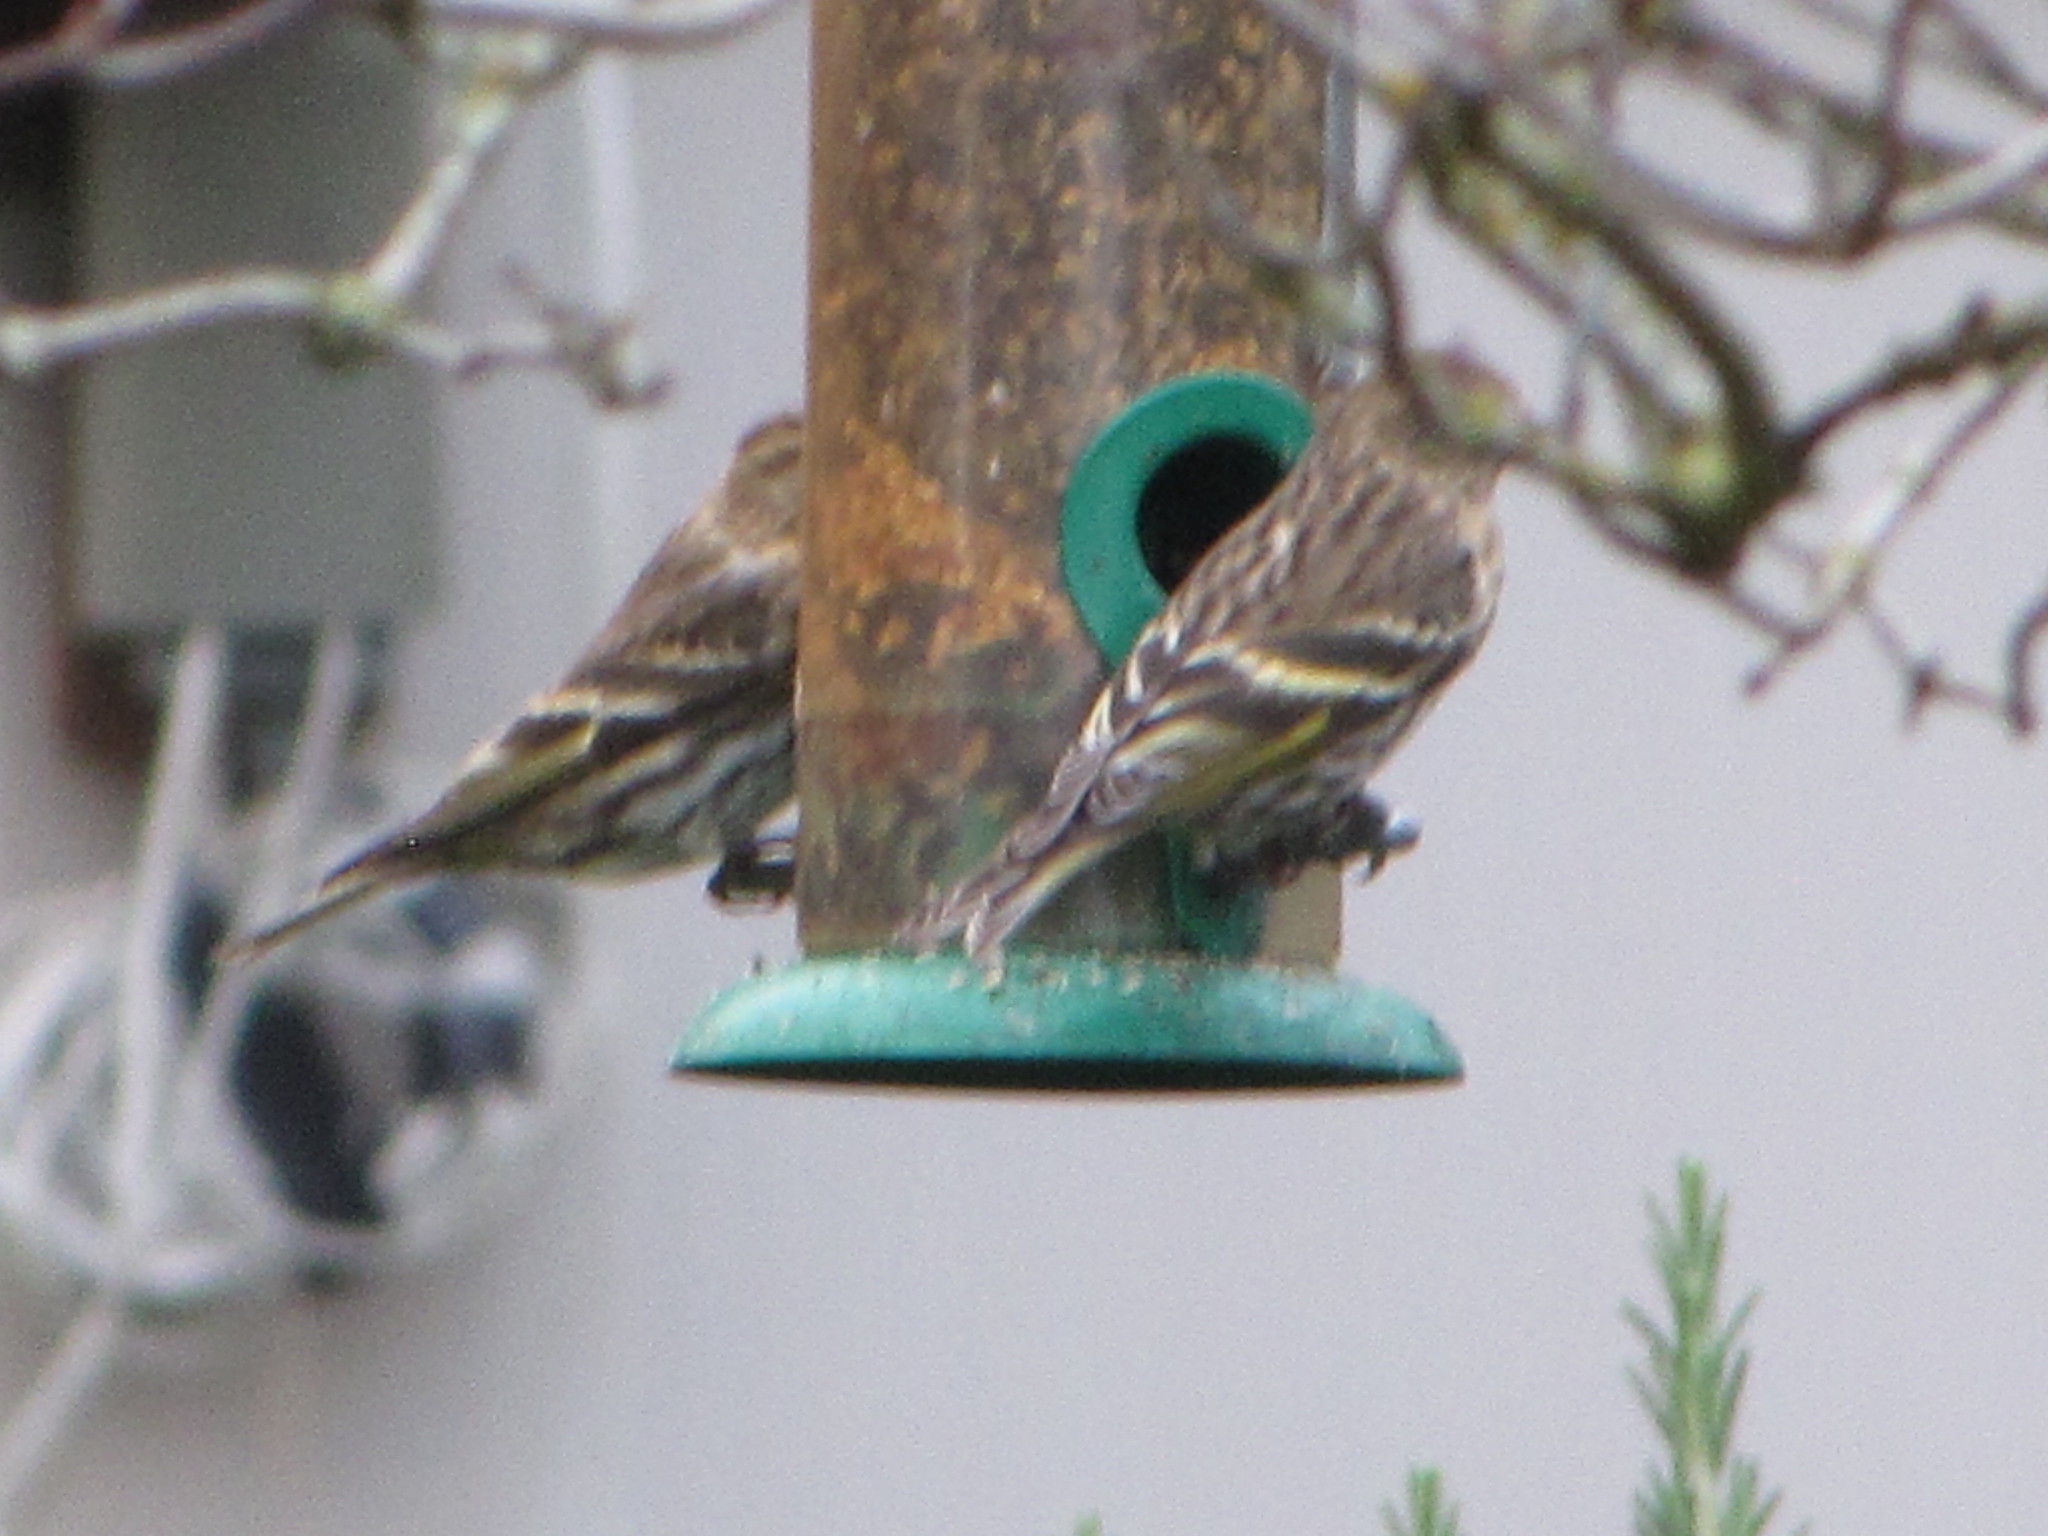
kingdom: Animalia
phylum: Chordata
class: Aves
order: Passeriformes
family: Fringillidae
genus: Spinus
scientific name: Spinus pinus
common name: Pine siskin
